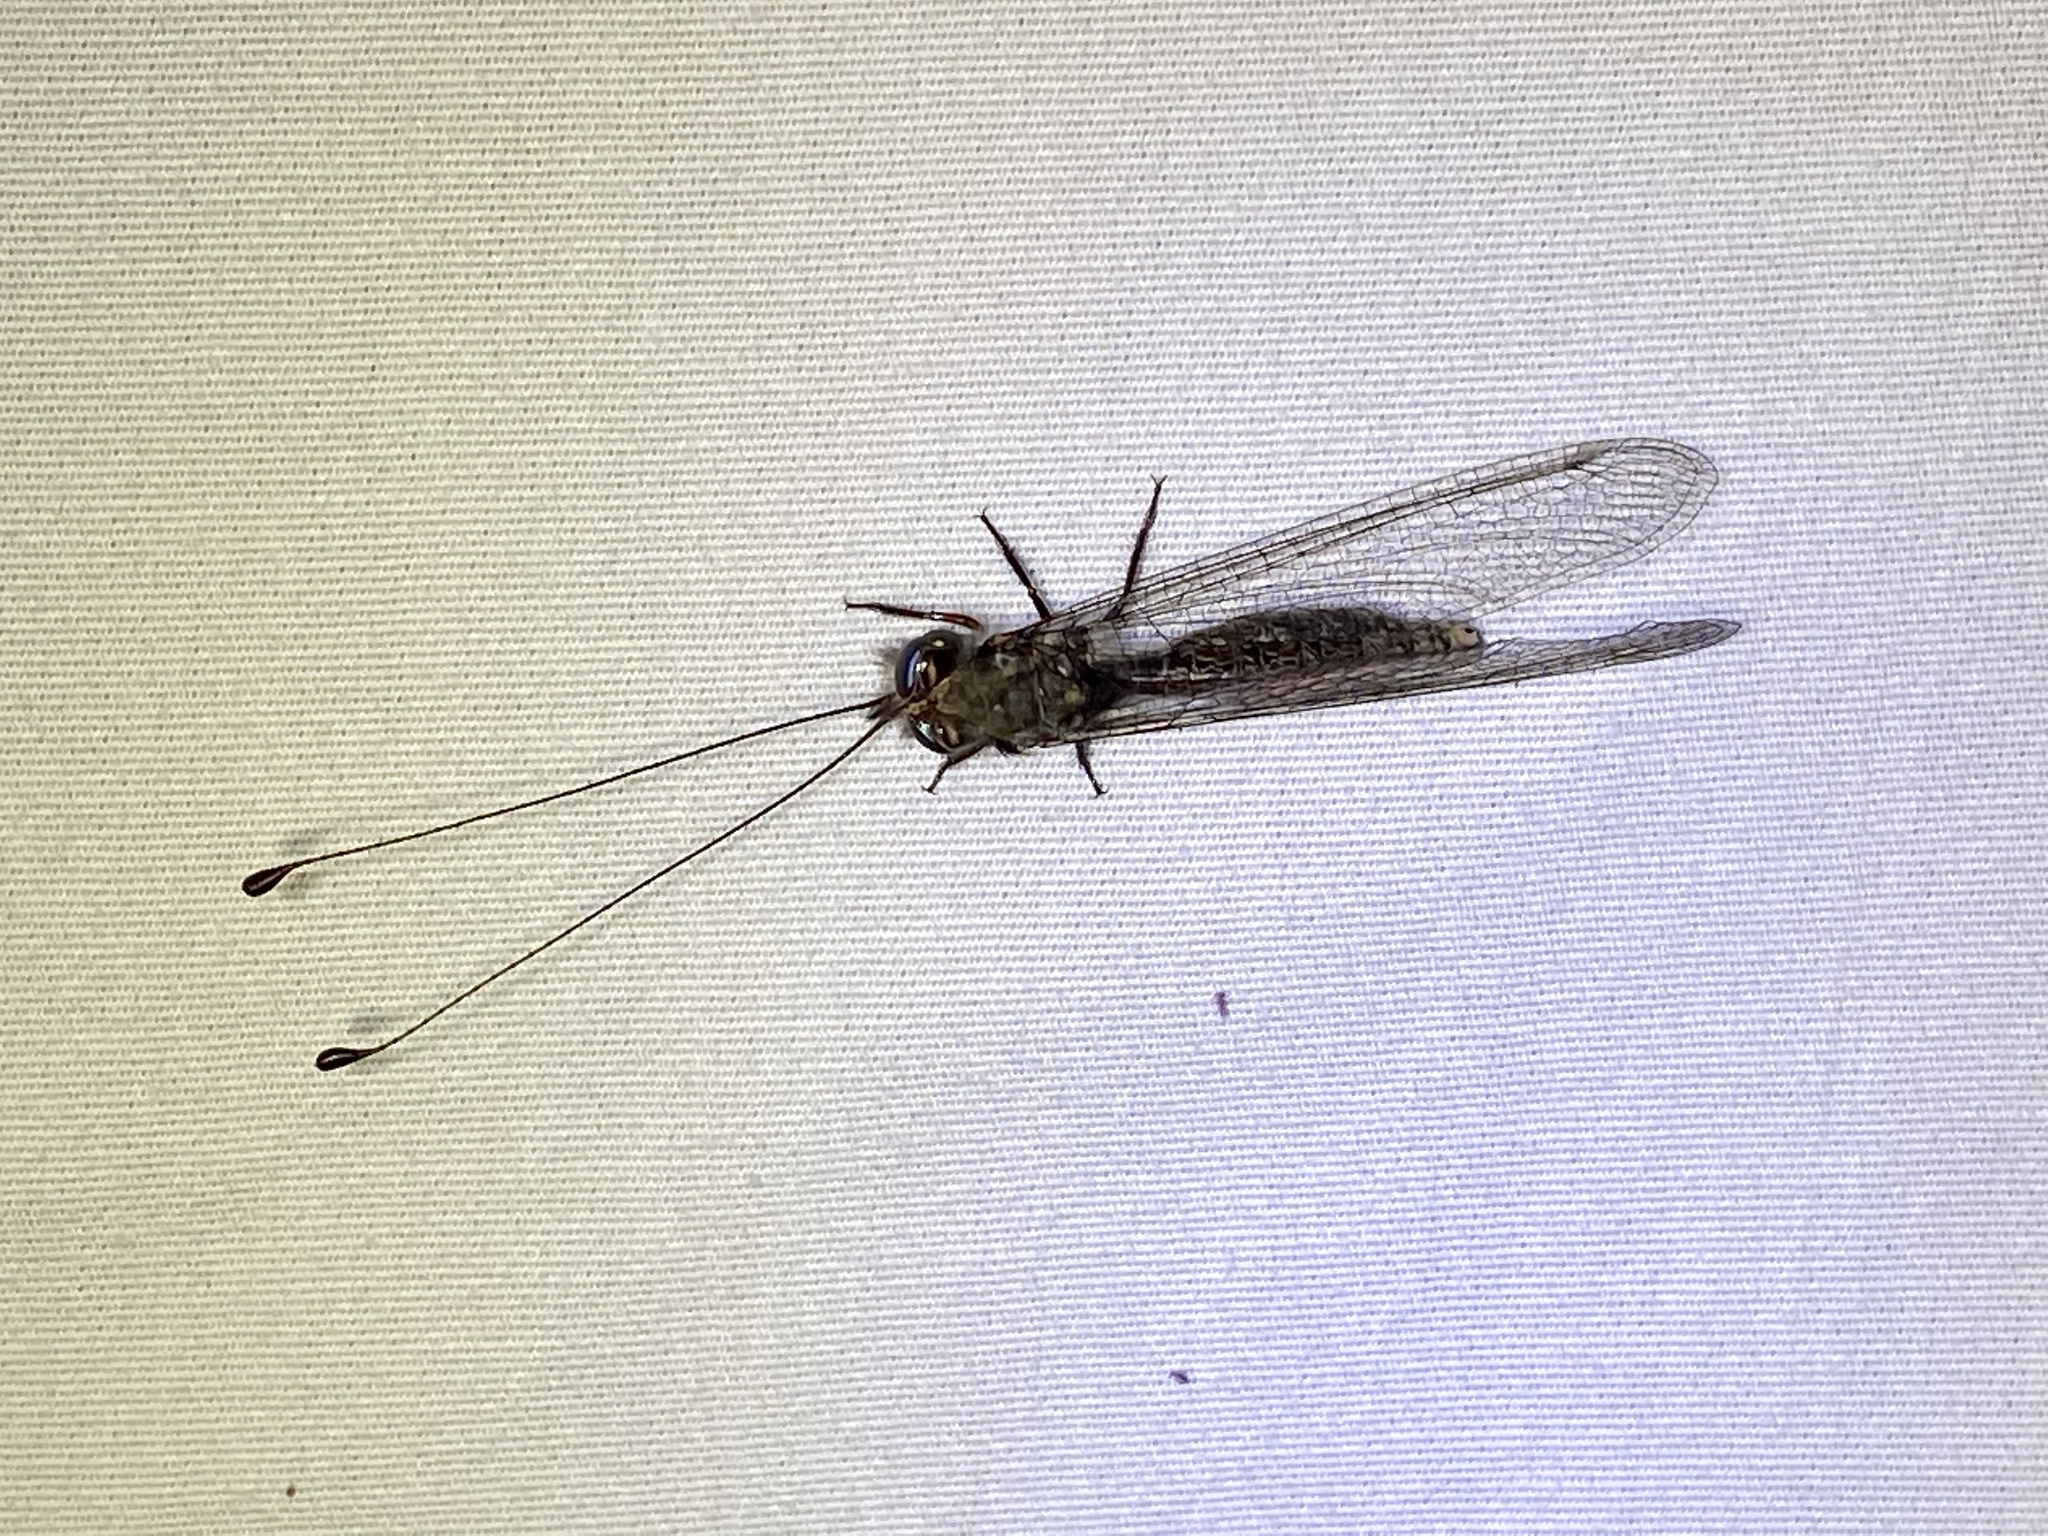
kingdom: Animalia
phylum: Arthropoda
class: Insecta
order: Neuroptera
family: Ascalaphidae
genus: Ululodes
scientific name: Ululodes quadripunctatus
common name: Four-spotted owlfly
